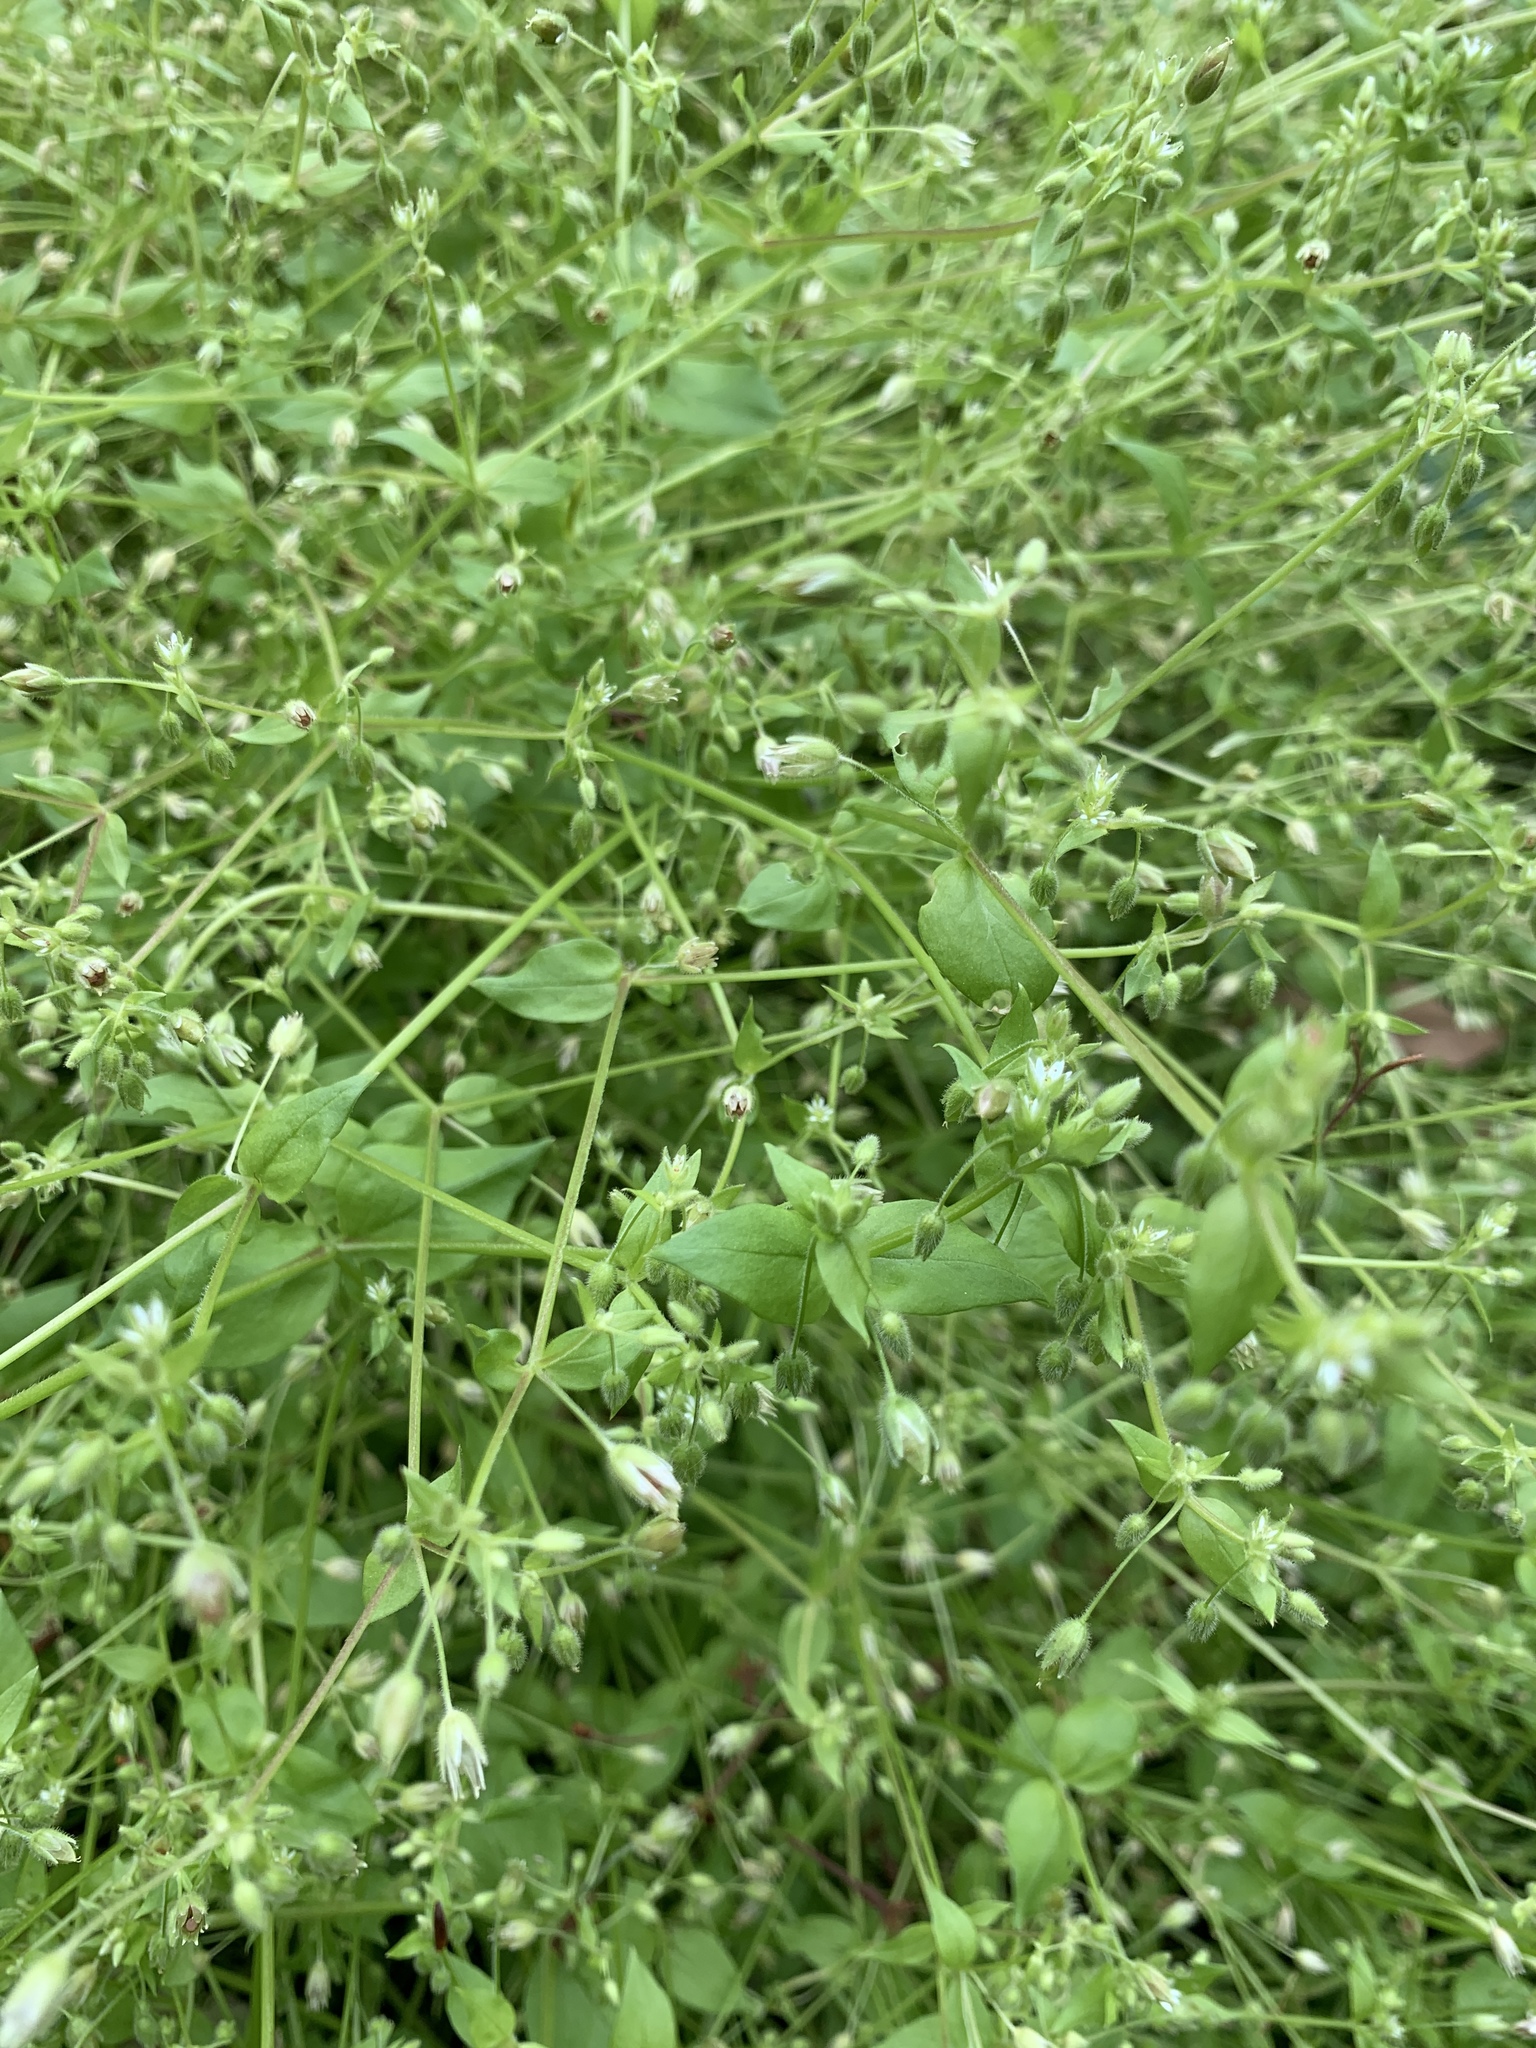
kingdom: Plantae
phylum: Tracheophyta
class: Magnoliopsida
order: Caryophyllales
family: Caryophyllaceae
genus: Cerastium
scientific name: Cerastium glomeratum
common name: Sticky chickweed
